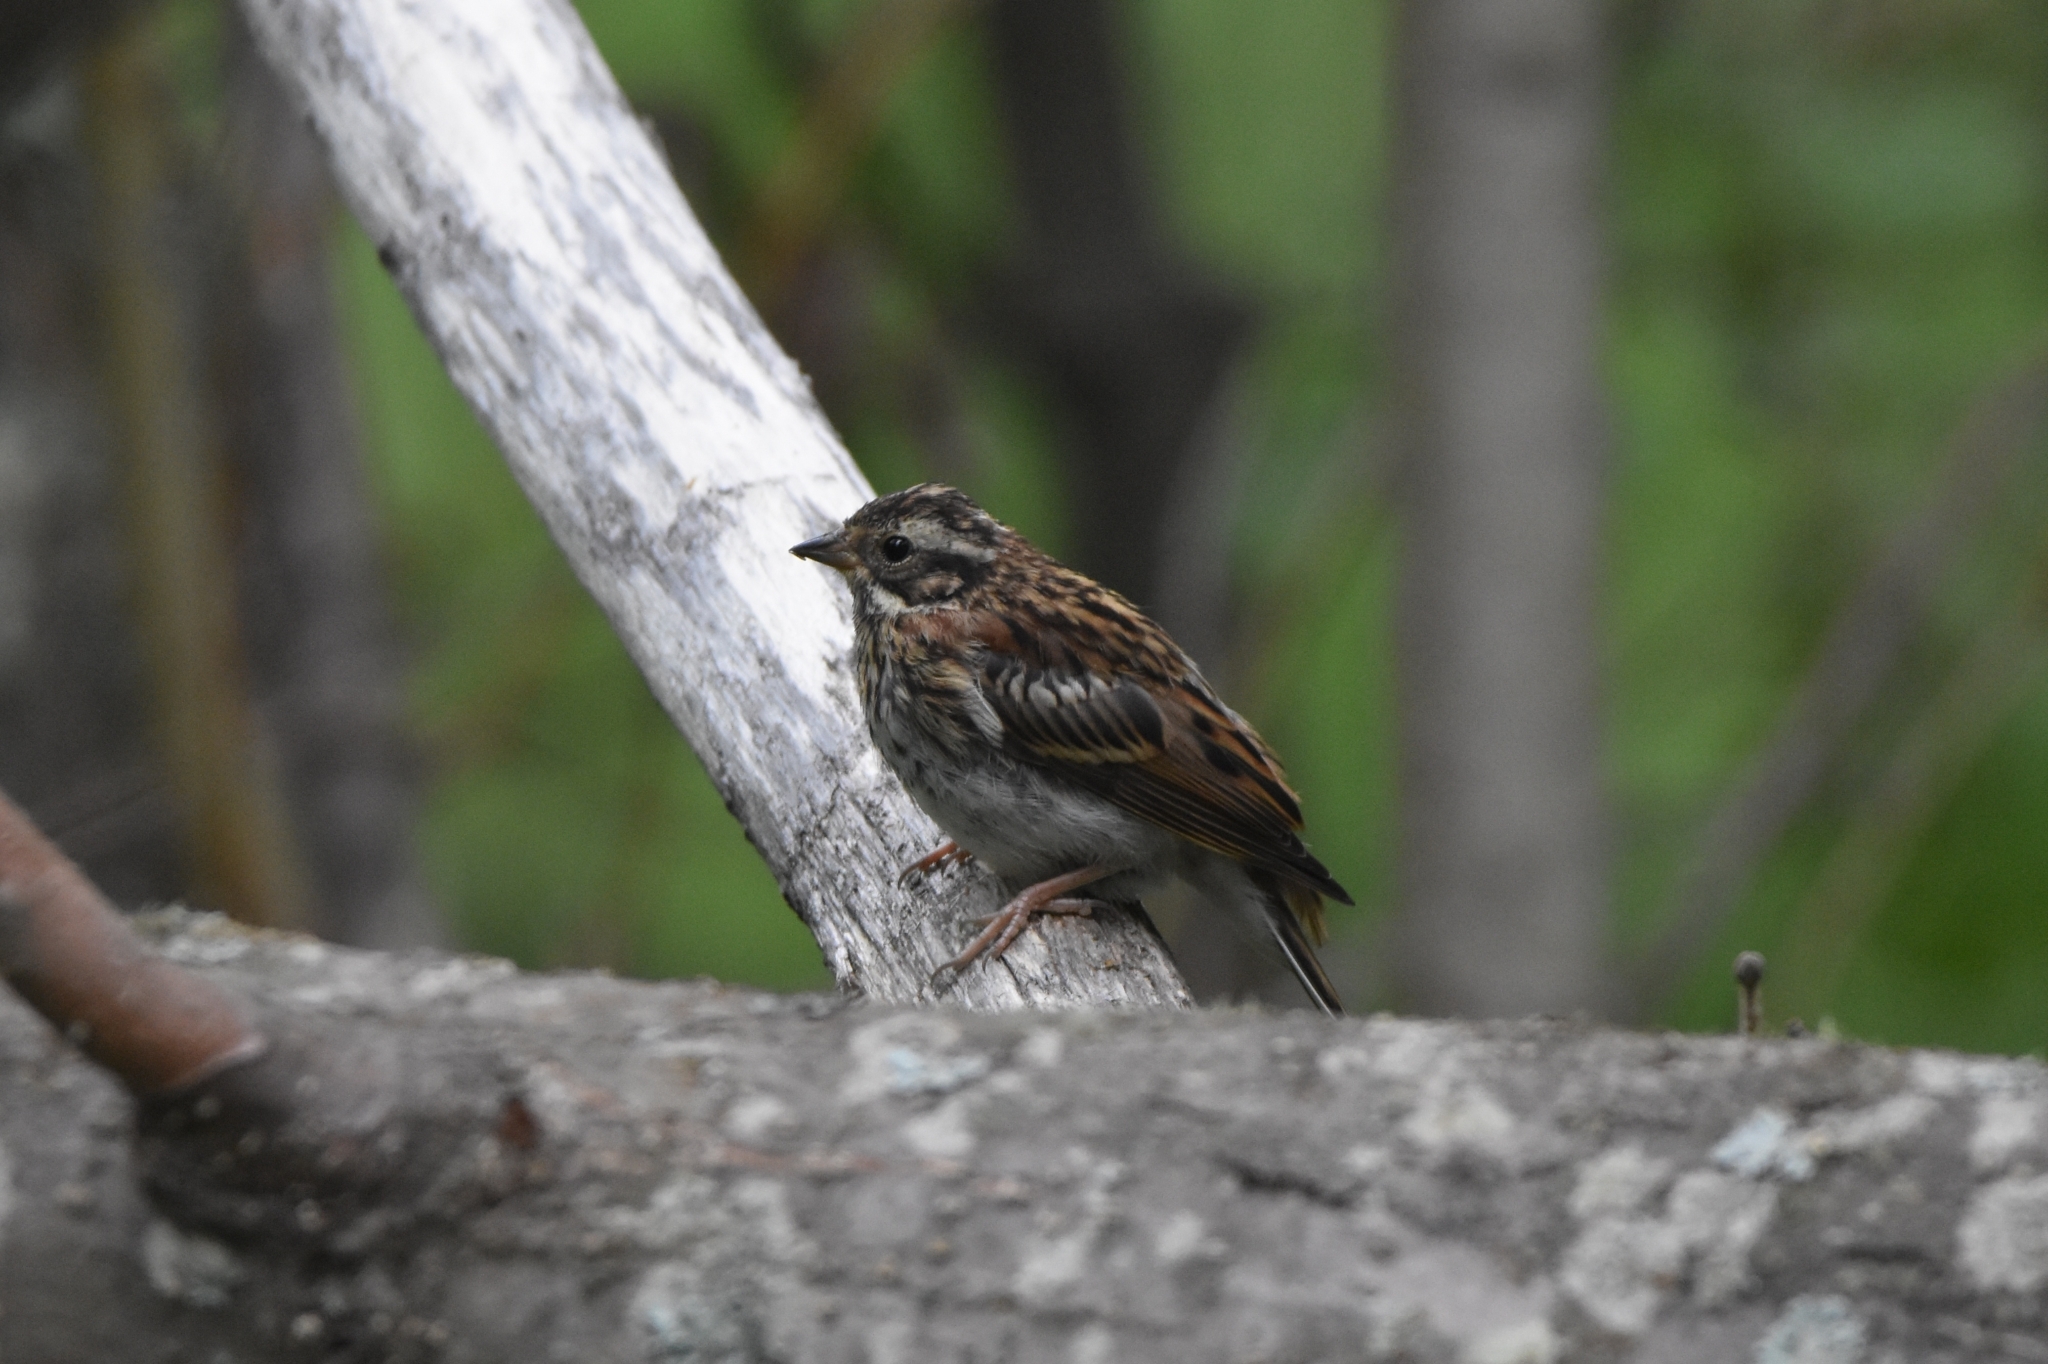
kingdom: Animalia
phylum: Chordata
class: Aves
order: Passeriformes
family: Emberizidae
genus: Emberiza
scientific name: Emberiza rustica
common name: Rustic bunting
